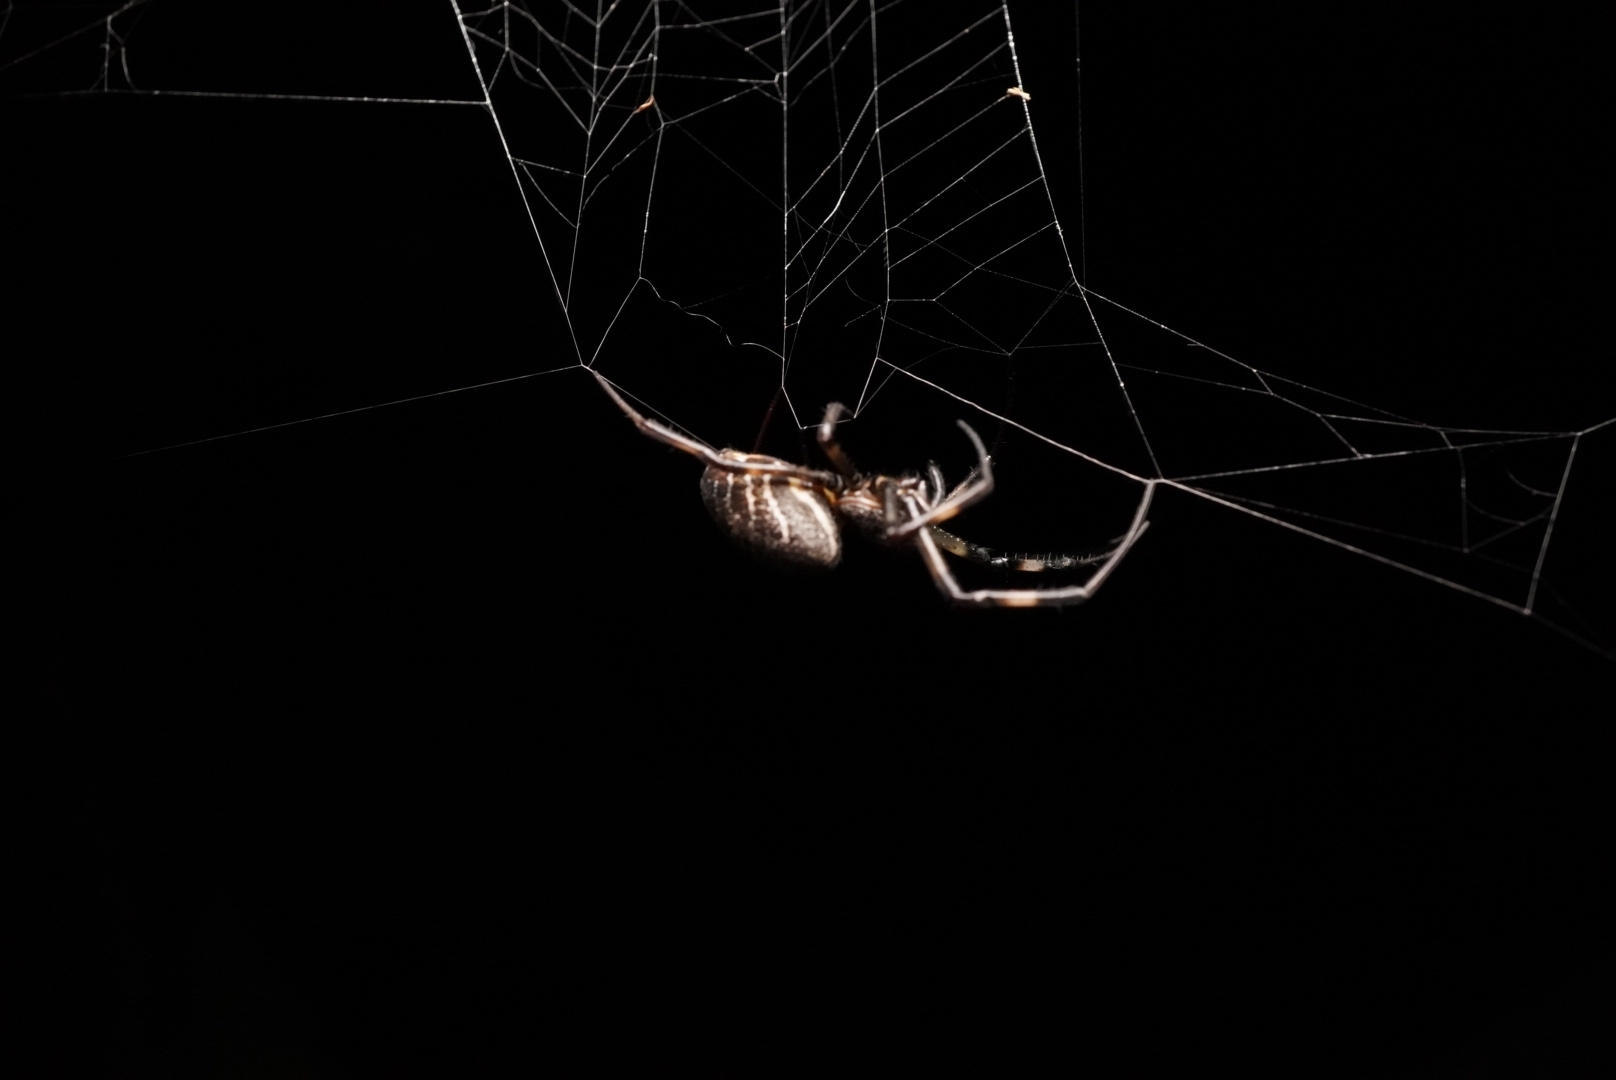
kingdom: Animalia
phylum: Arthropoda
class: Arachnida
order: Araneae
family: Araneidae
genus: Nephilengys
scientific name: Nephilengys malabarensis
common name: Asian hermit spider
